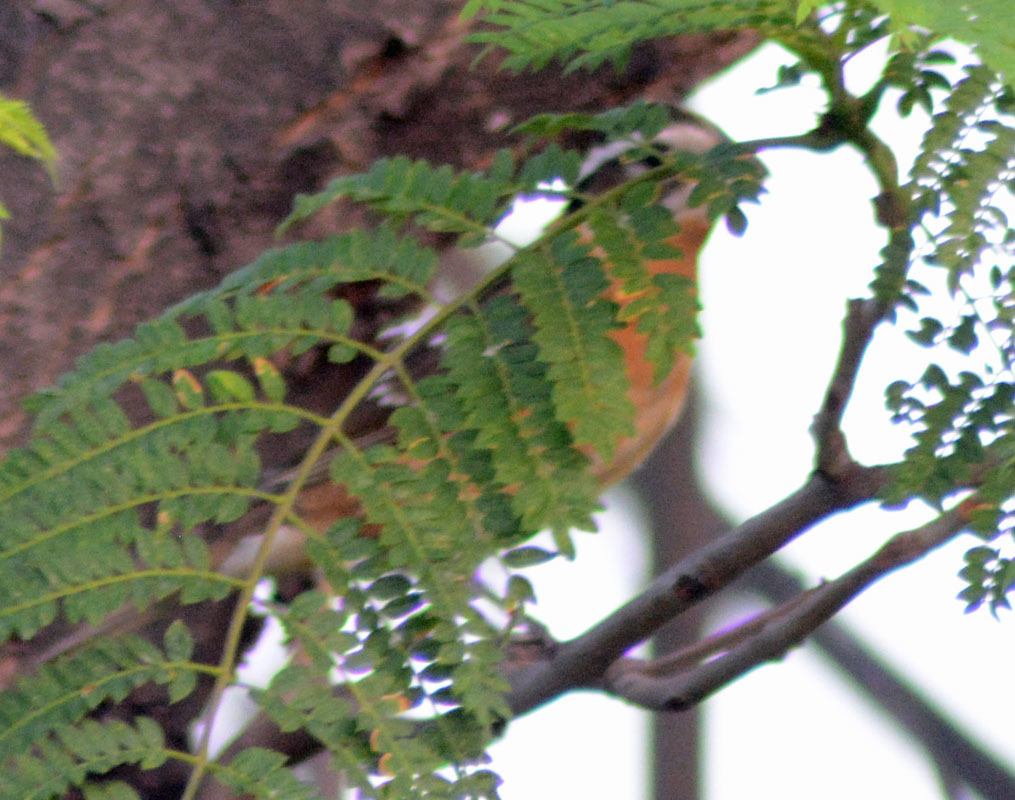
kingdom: Animalia
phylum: Chordata
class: Aves
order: Passeriformes
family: Cardinalidae
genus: Pheucticus
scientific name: Pheucticus melanocephalus
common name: Black-headed grosbeak
